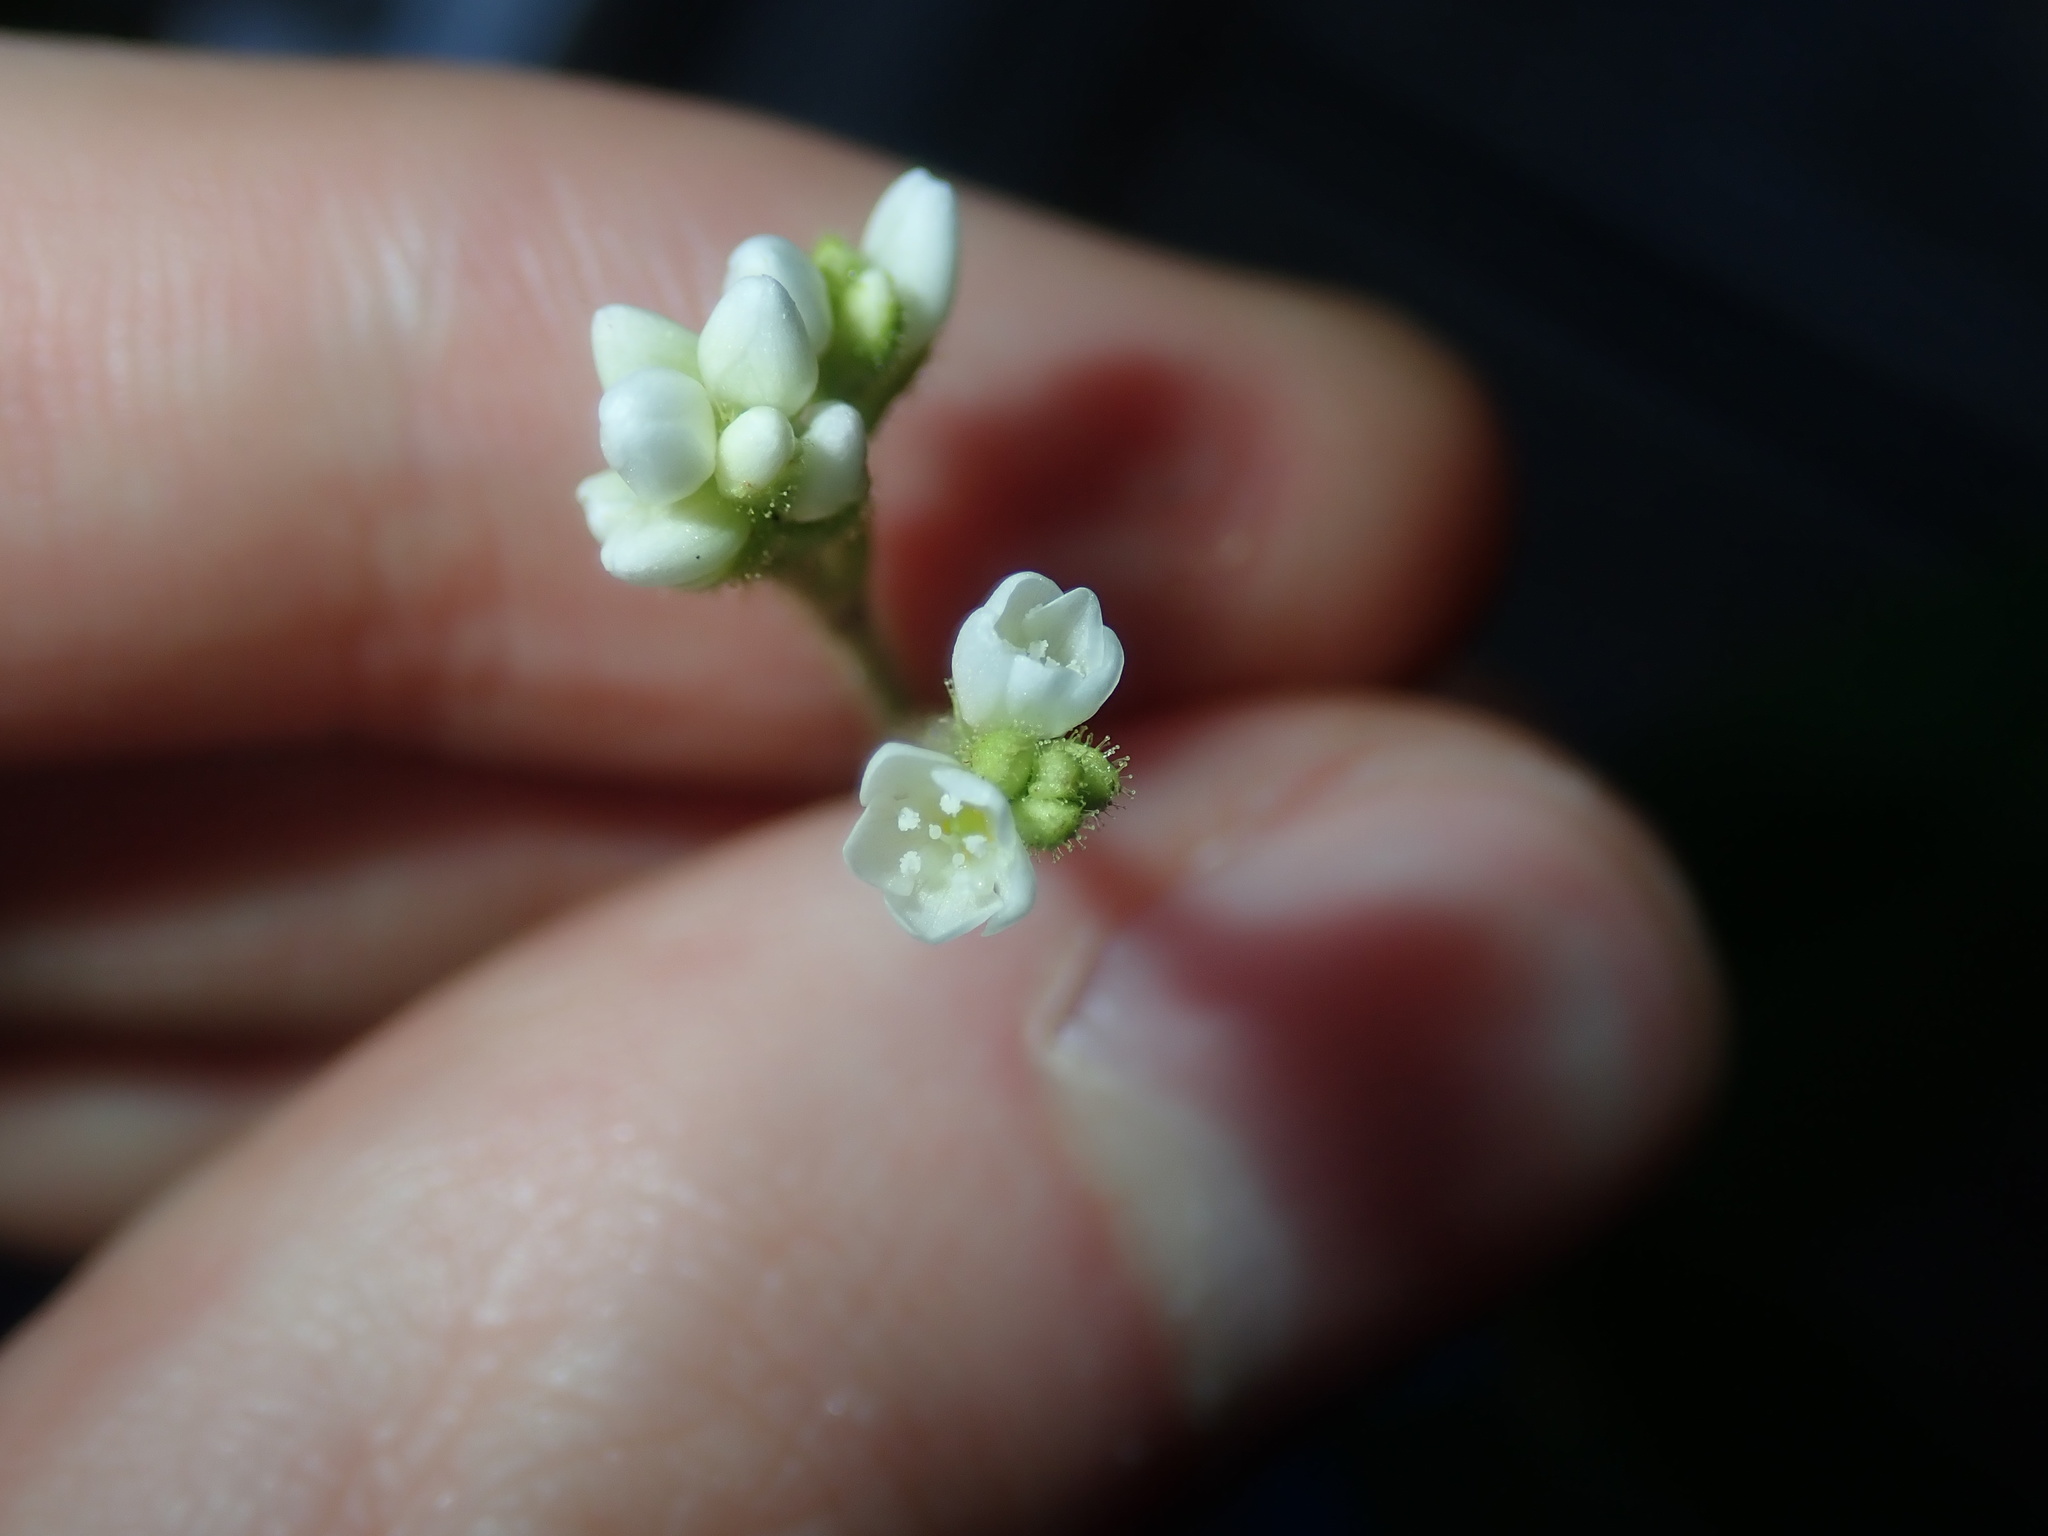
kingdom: Plantae
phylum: Tracheophyta
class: Magnoliopsida
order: Caryophyllales
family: Polygonaceae
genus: Persicaria
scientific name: Persicaria strigosa
